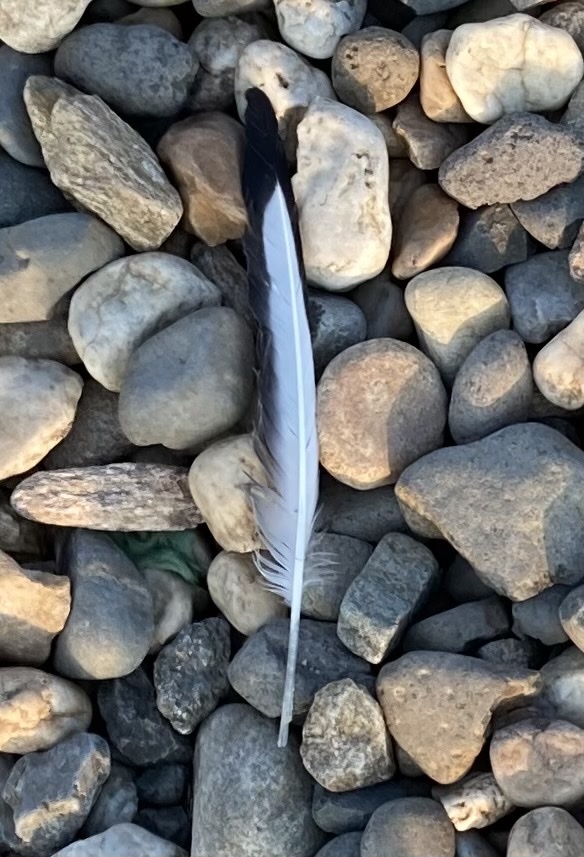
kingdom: Animalia
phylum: Chordata
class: Aves
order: Charadriiformes
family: Laridae
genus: Chroicocephalus
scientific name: Chroicocephalus ridibundus
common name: Black-headed gull
